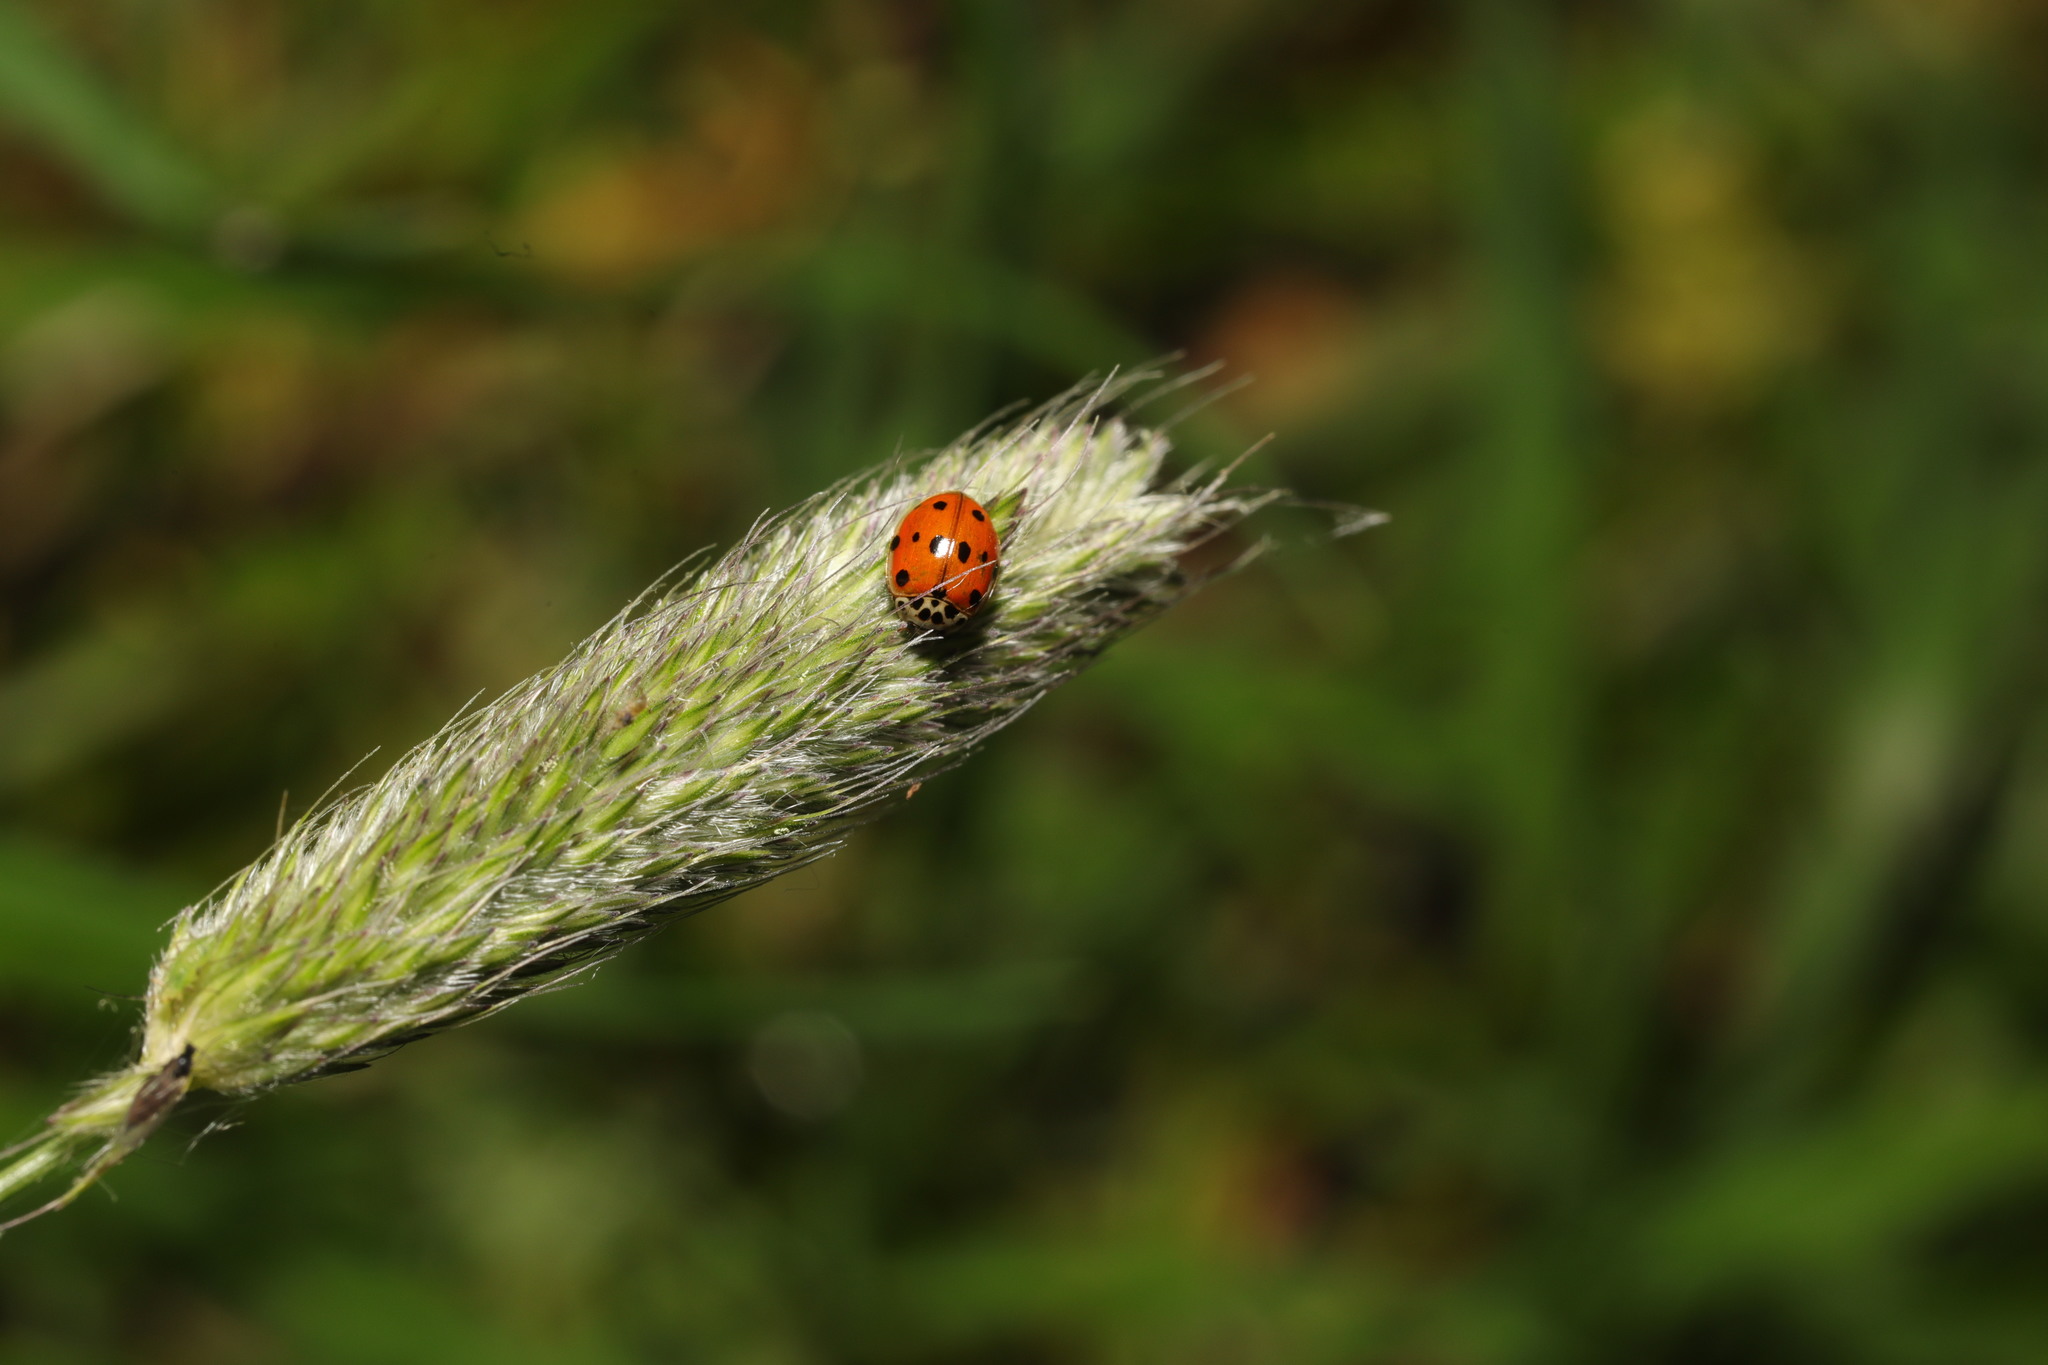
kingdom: Animalia
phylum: Arthropoda
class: Insecta
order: Coleoptera
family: Coccinellidae
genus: Adalia
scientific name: Adalia decempunctata
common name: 10-spot ladybird
